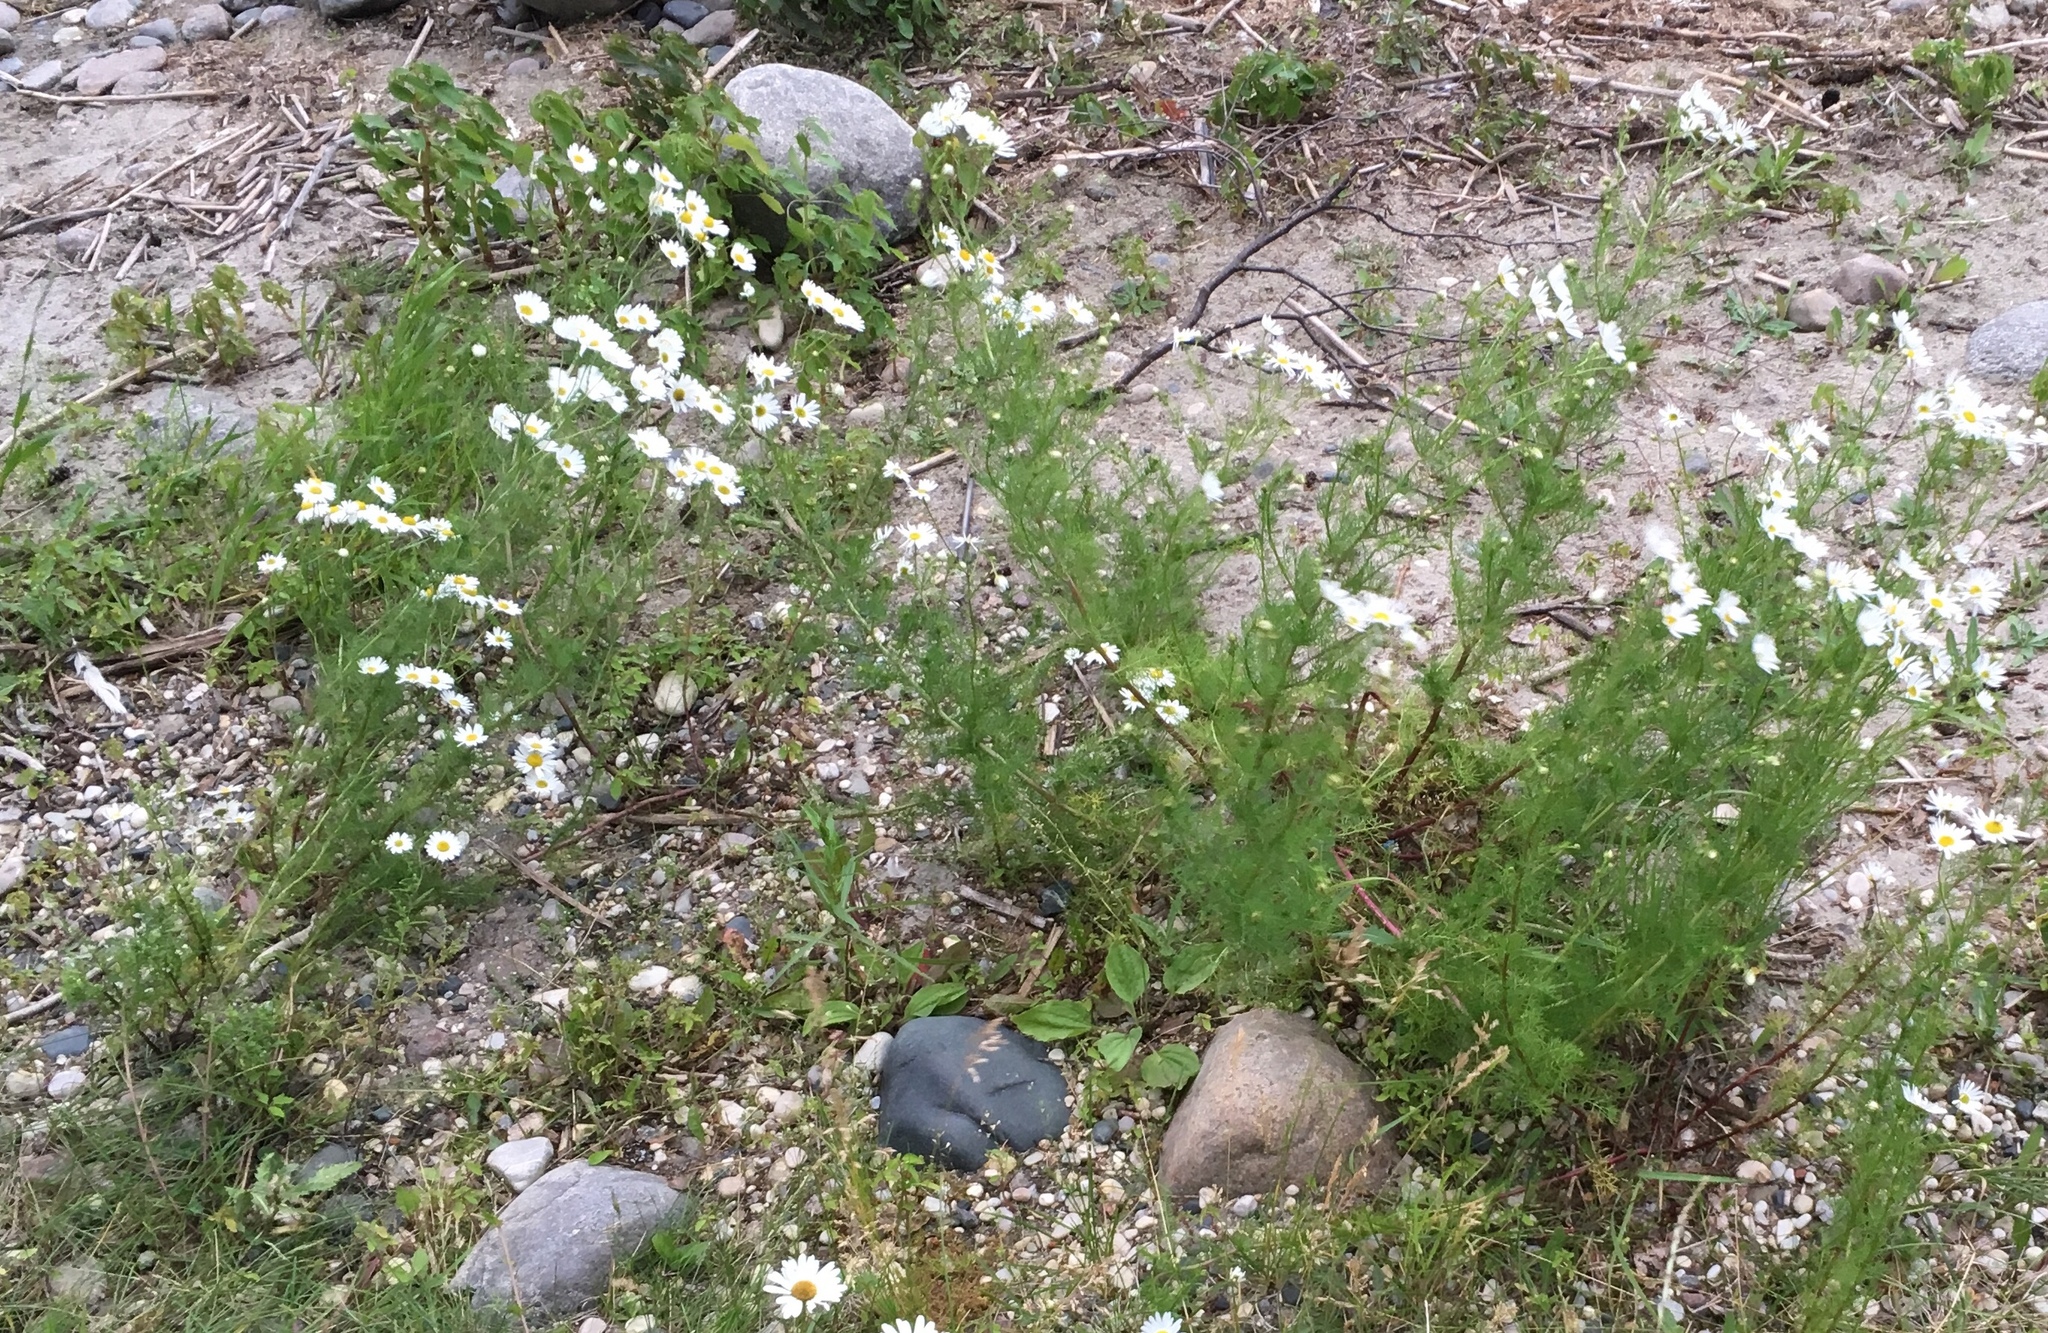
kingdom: Plantae
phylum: Tracheophyta
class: Magnoliopsida
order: Asterales
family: Asteraceae
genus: Tripleurospermum
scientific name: Tripleurospermum inodorum
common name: Scentless mayweed
